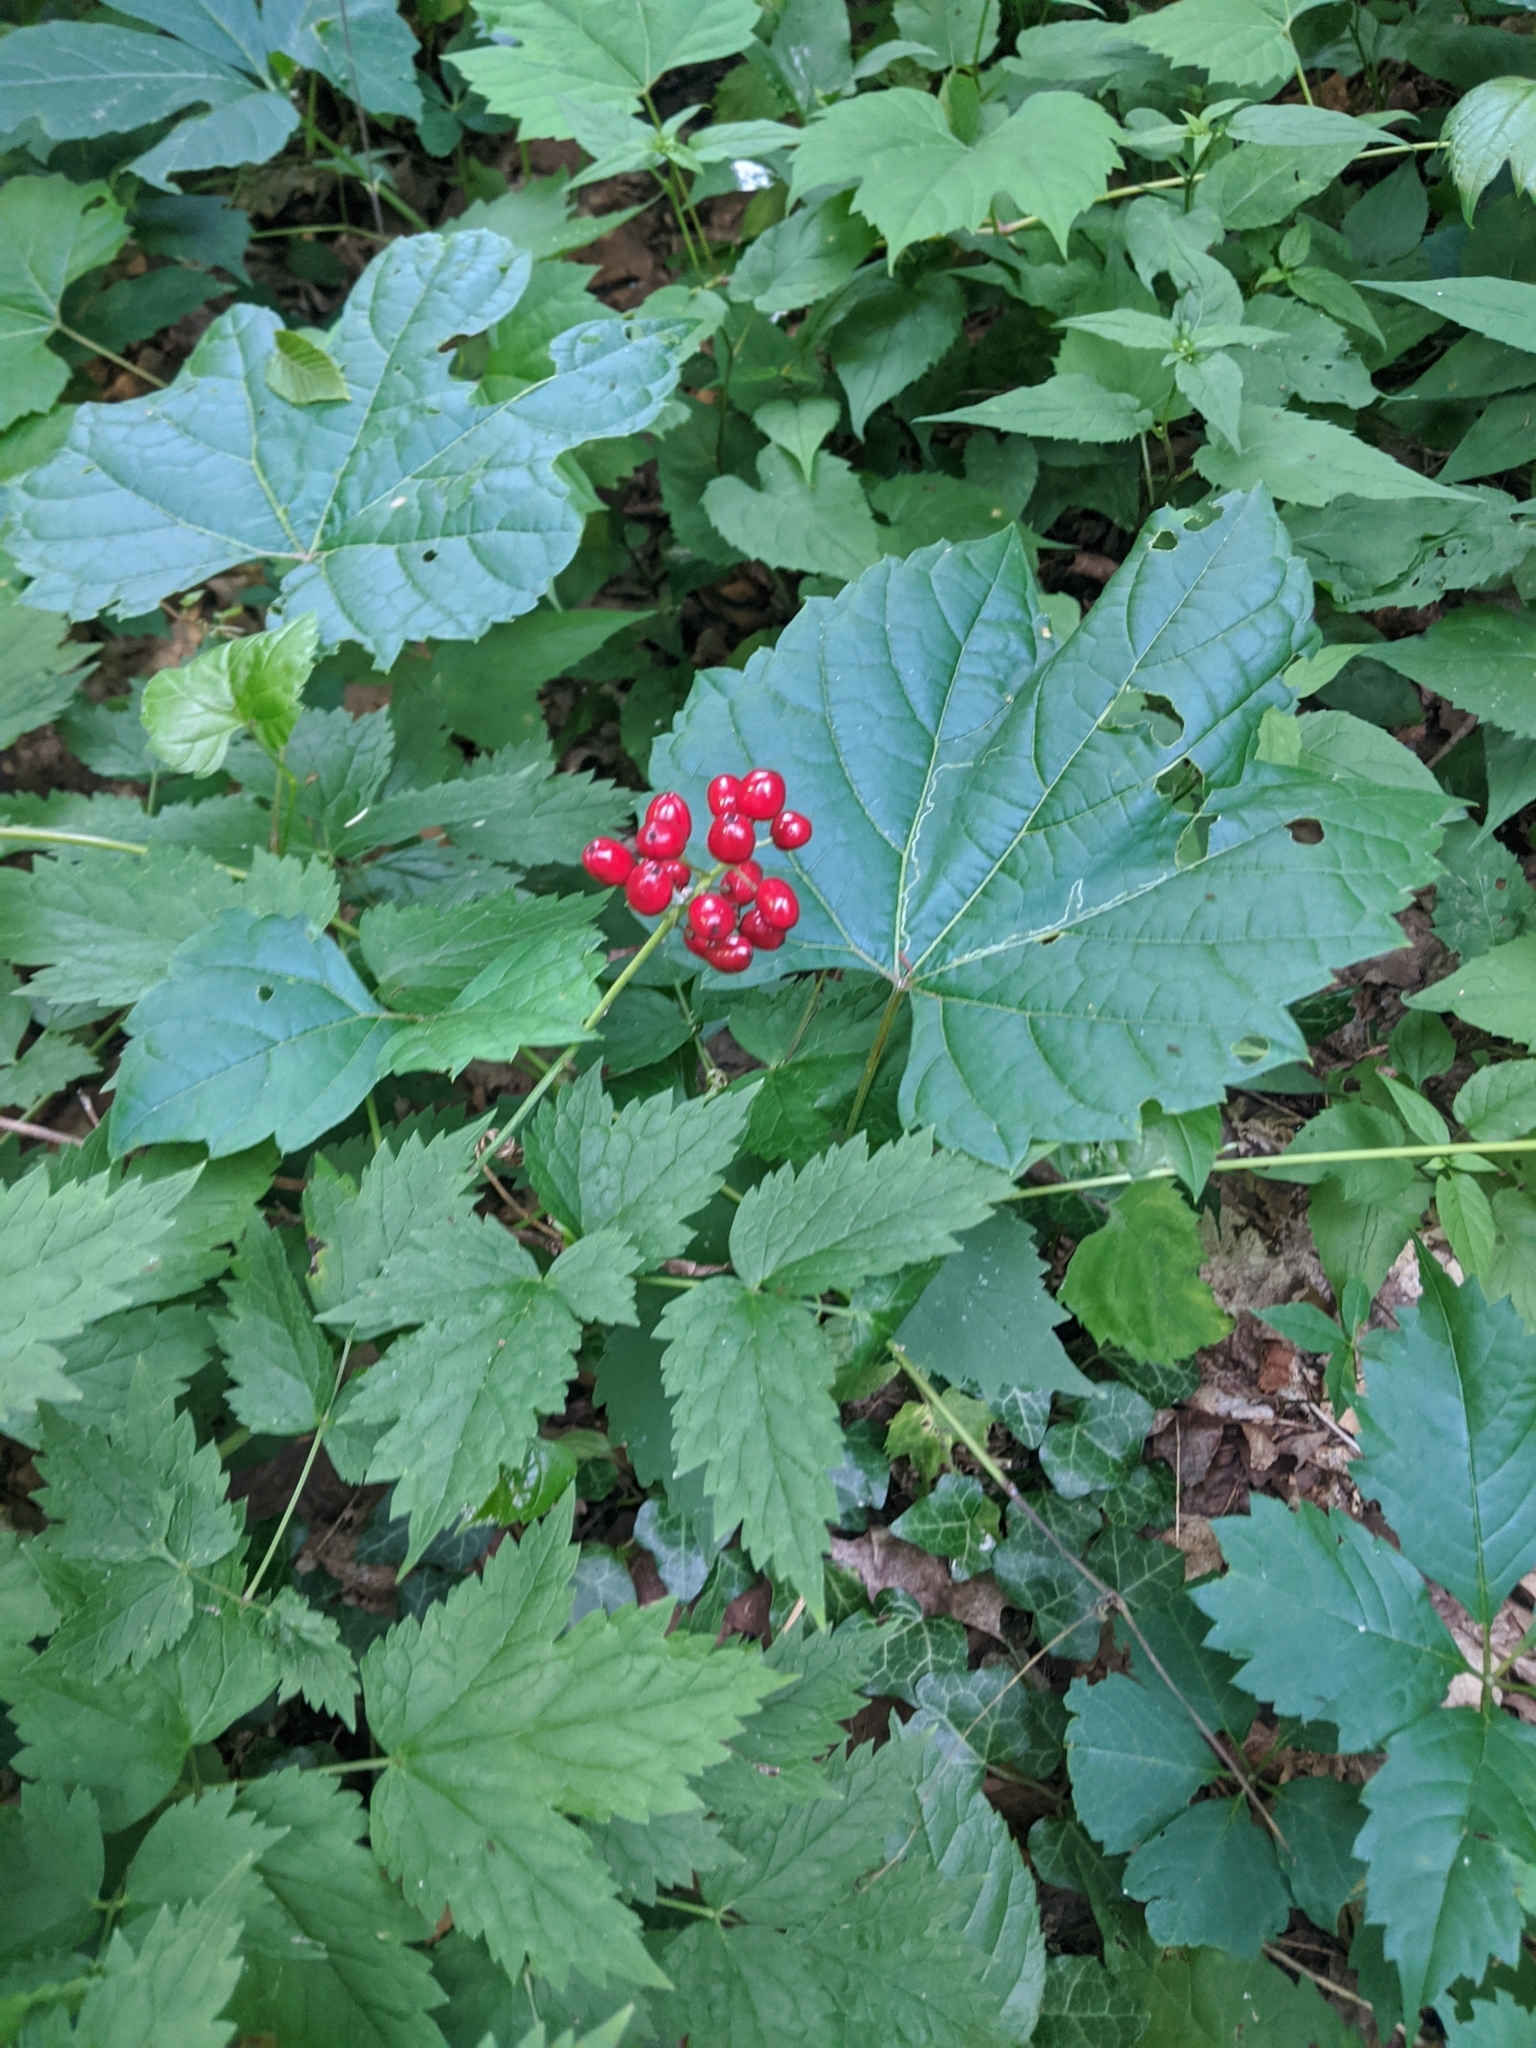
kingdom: Plantae
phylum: Tracheophyta
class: Magnoliopsida
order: Ranunculales
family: Ranunculaceae
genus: Actaea
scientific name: Actaea rubra
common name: Red baneberry
